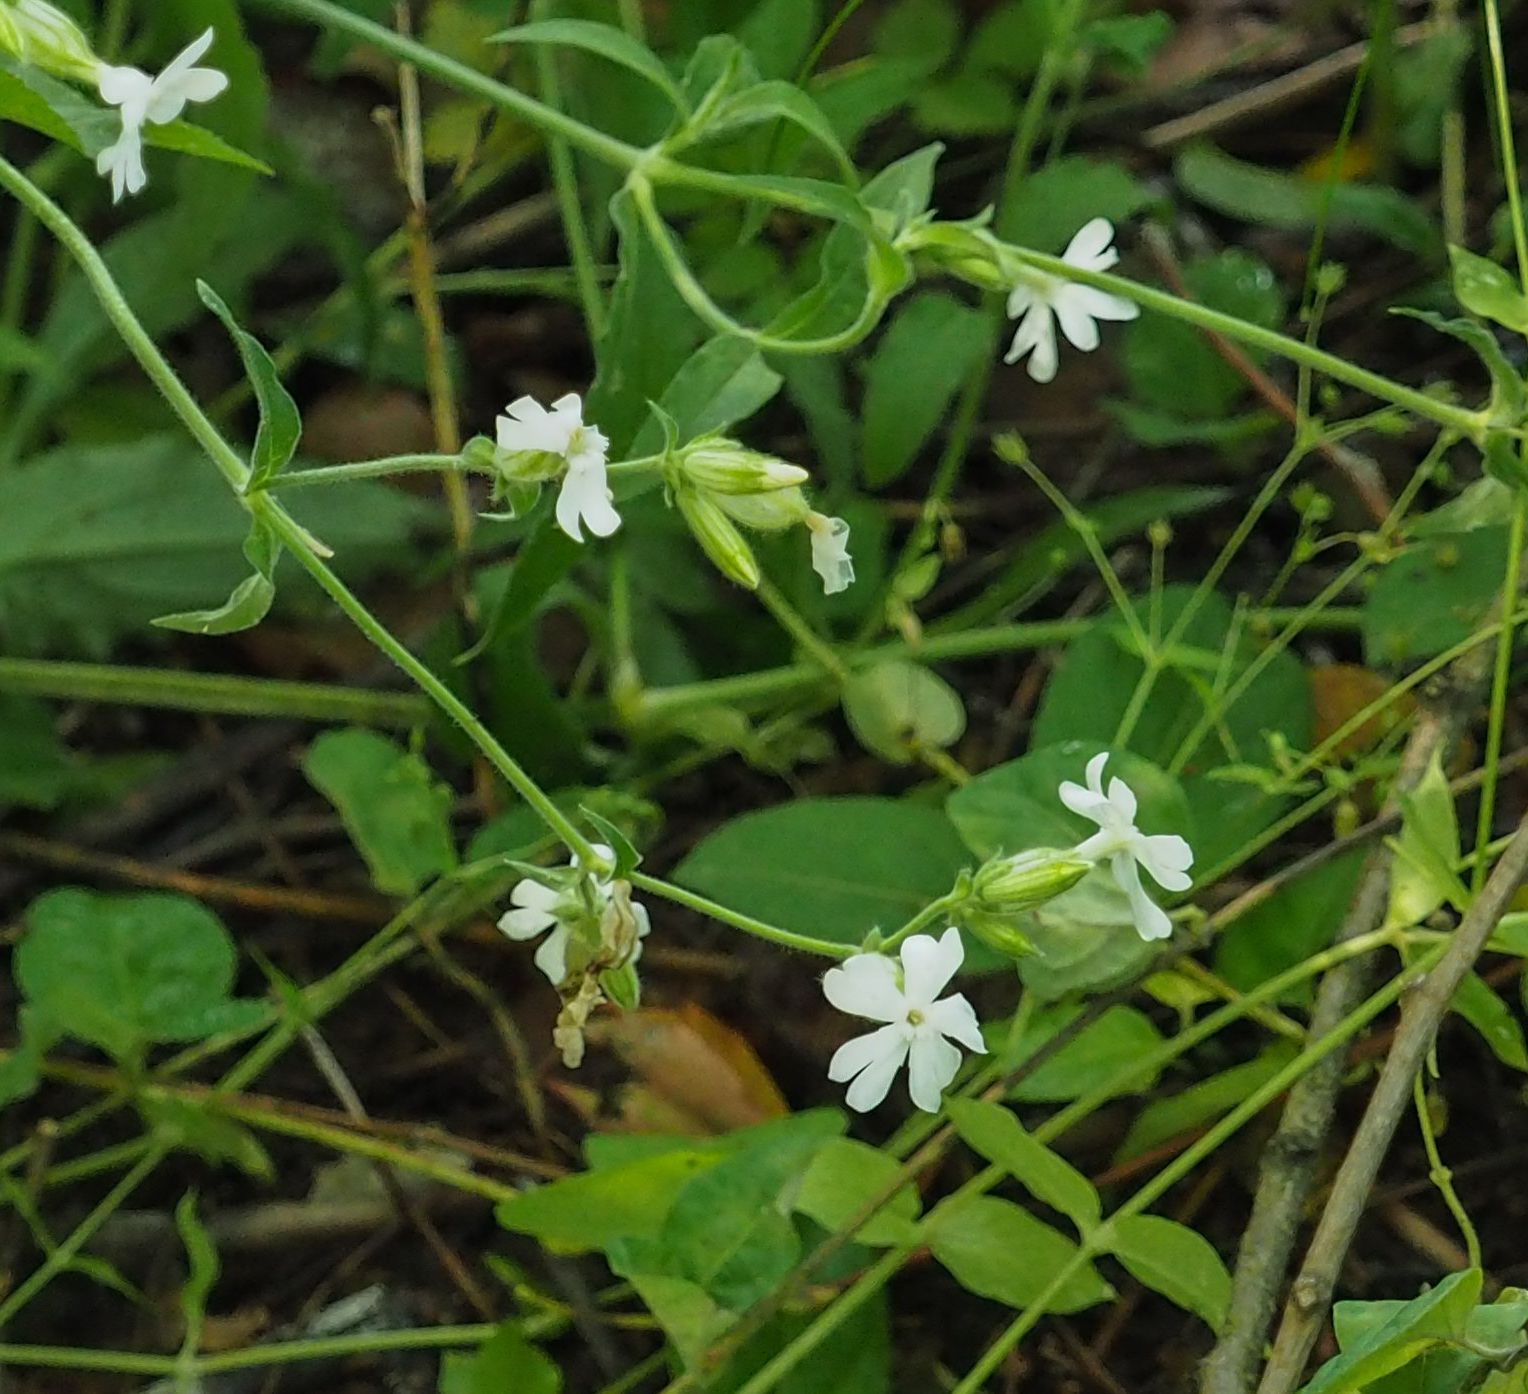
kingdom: Plantae
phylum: Tracheophyta
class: Magnoliopsida
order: Caryophyllales
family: Caryophyllaceae
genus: Silene
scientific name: Silene latifolia
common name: White campion
